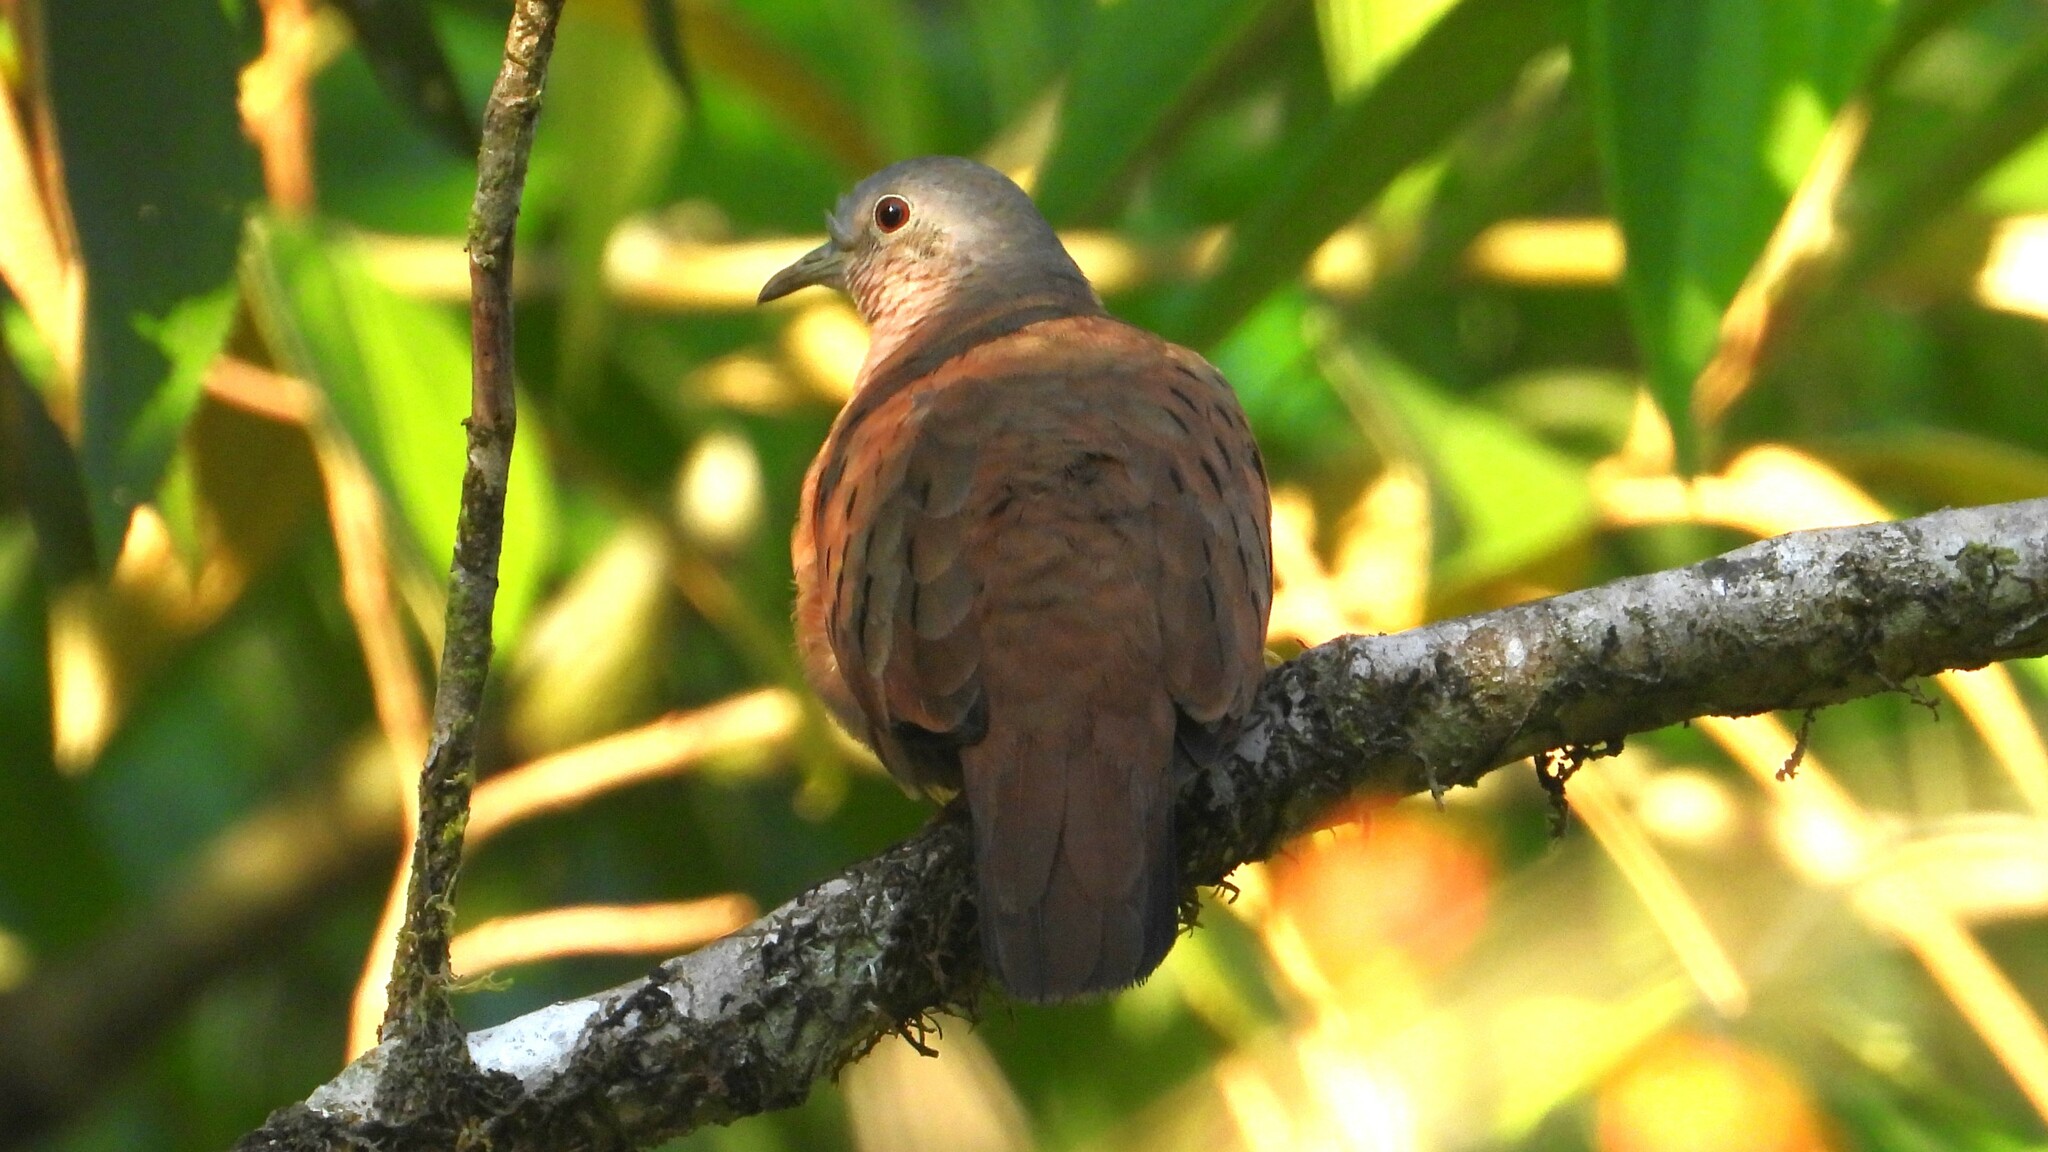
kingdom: Animalia
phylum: Chordata
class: Aves
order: Columbiformes
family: Columbidae
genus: Columbina
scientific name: Columbina talpacoti
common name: Ruddy ground dove
